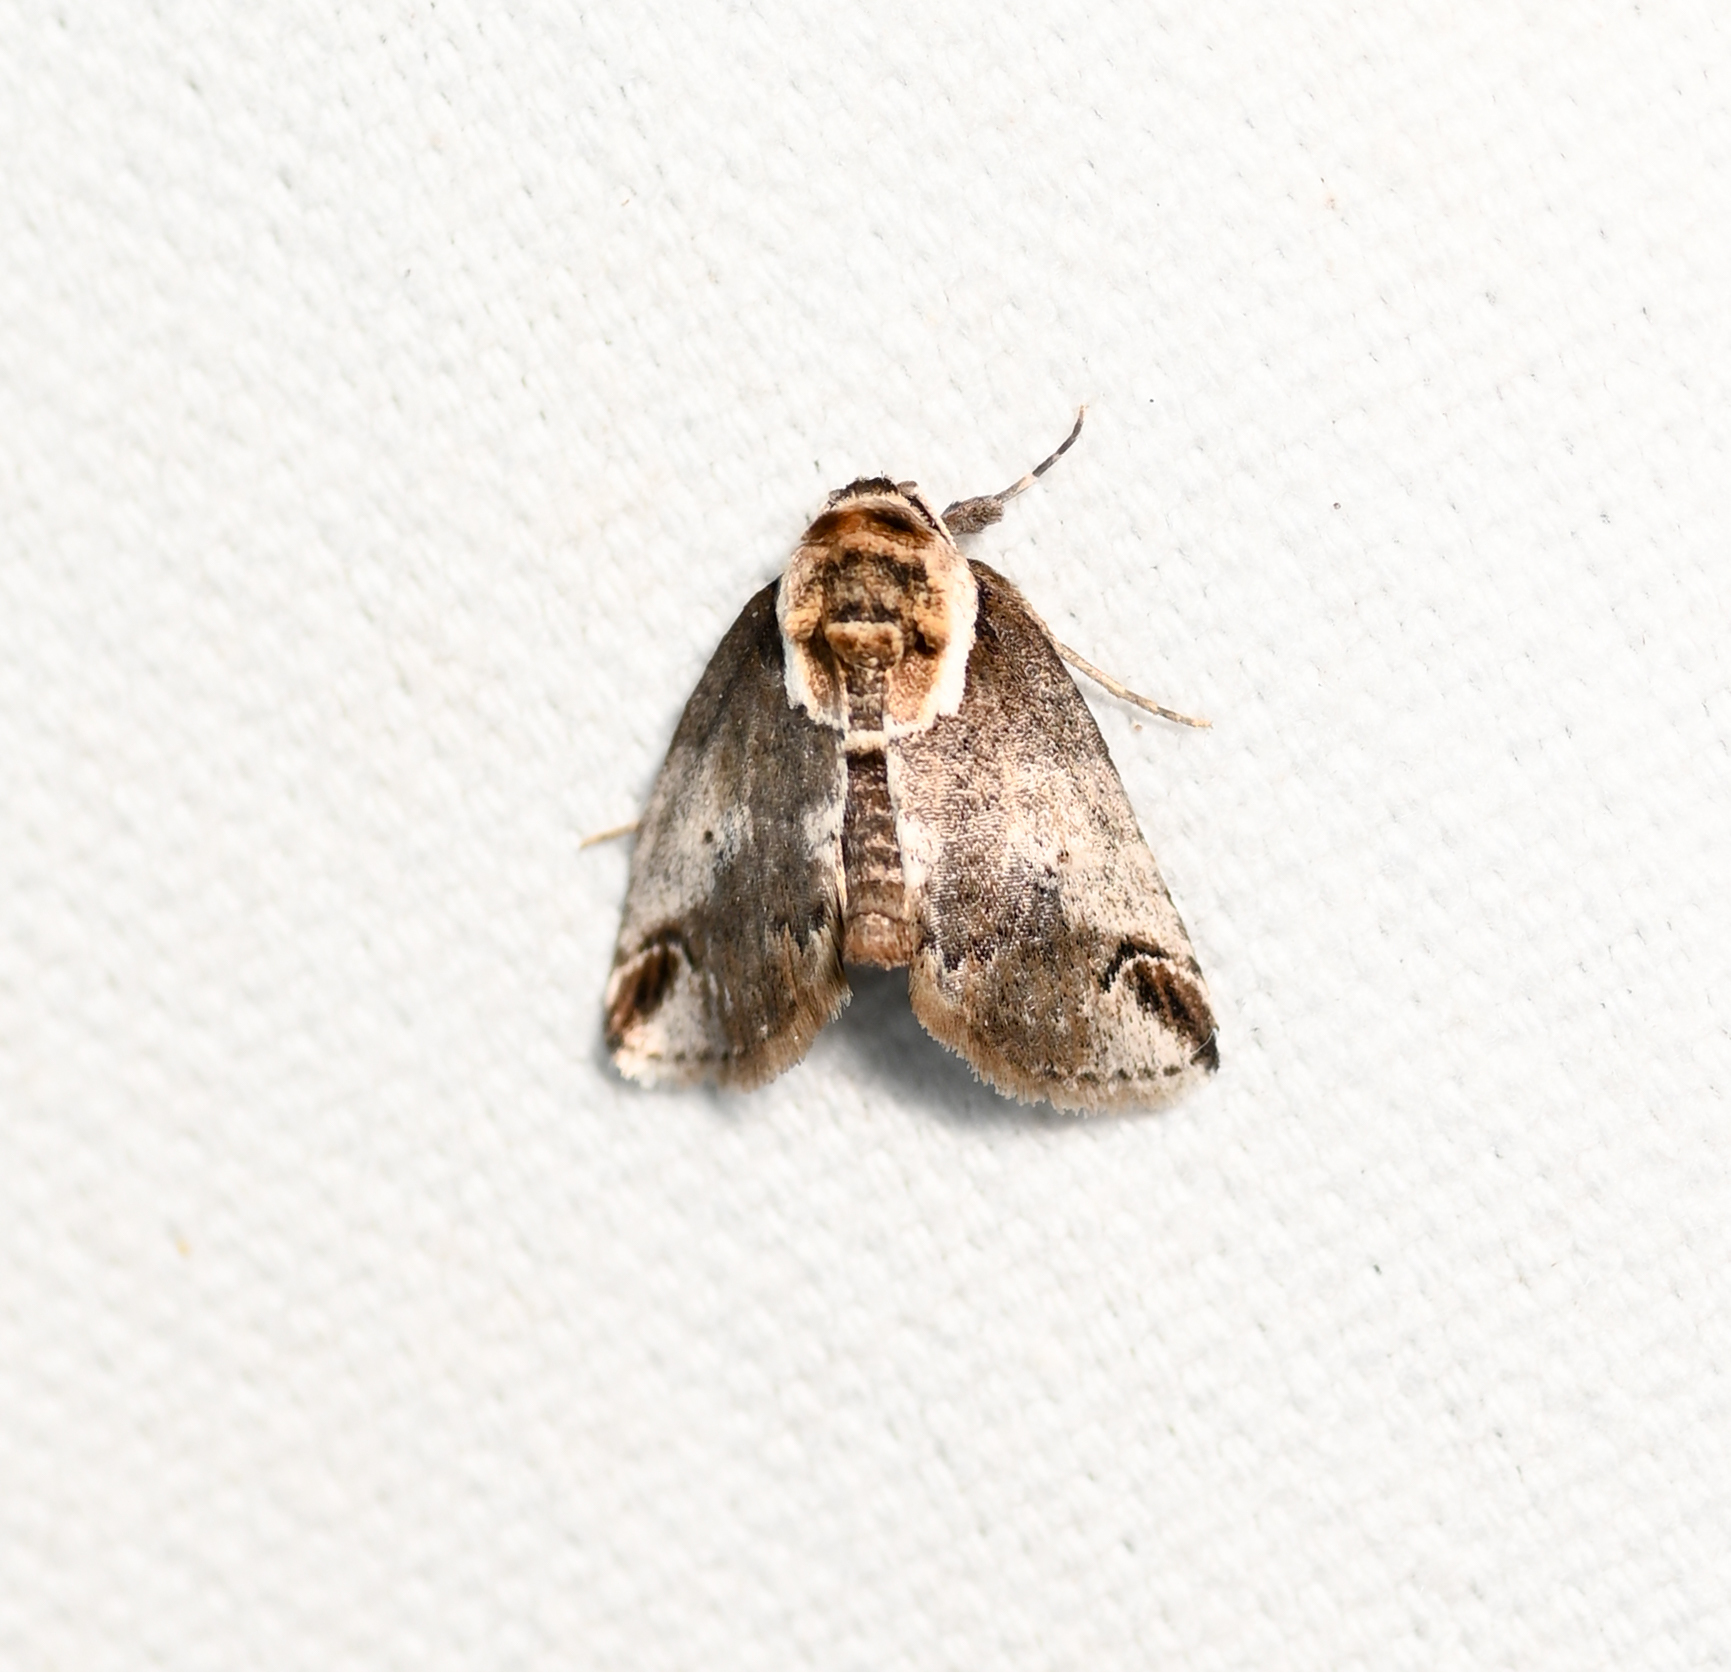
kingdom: Animalia
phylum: Arthropoda
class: Insecta
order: Lepidoptera
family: Nolidae
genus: Baileya
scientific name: Baileya ophthalmica
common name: Eyed baileya moth
